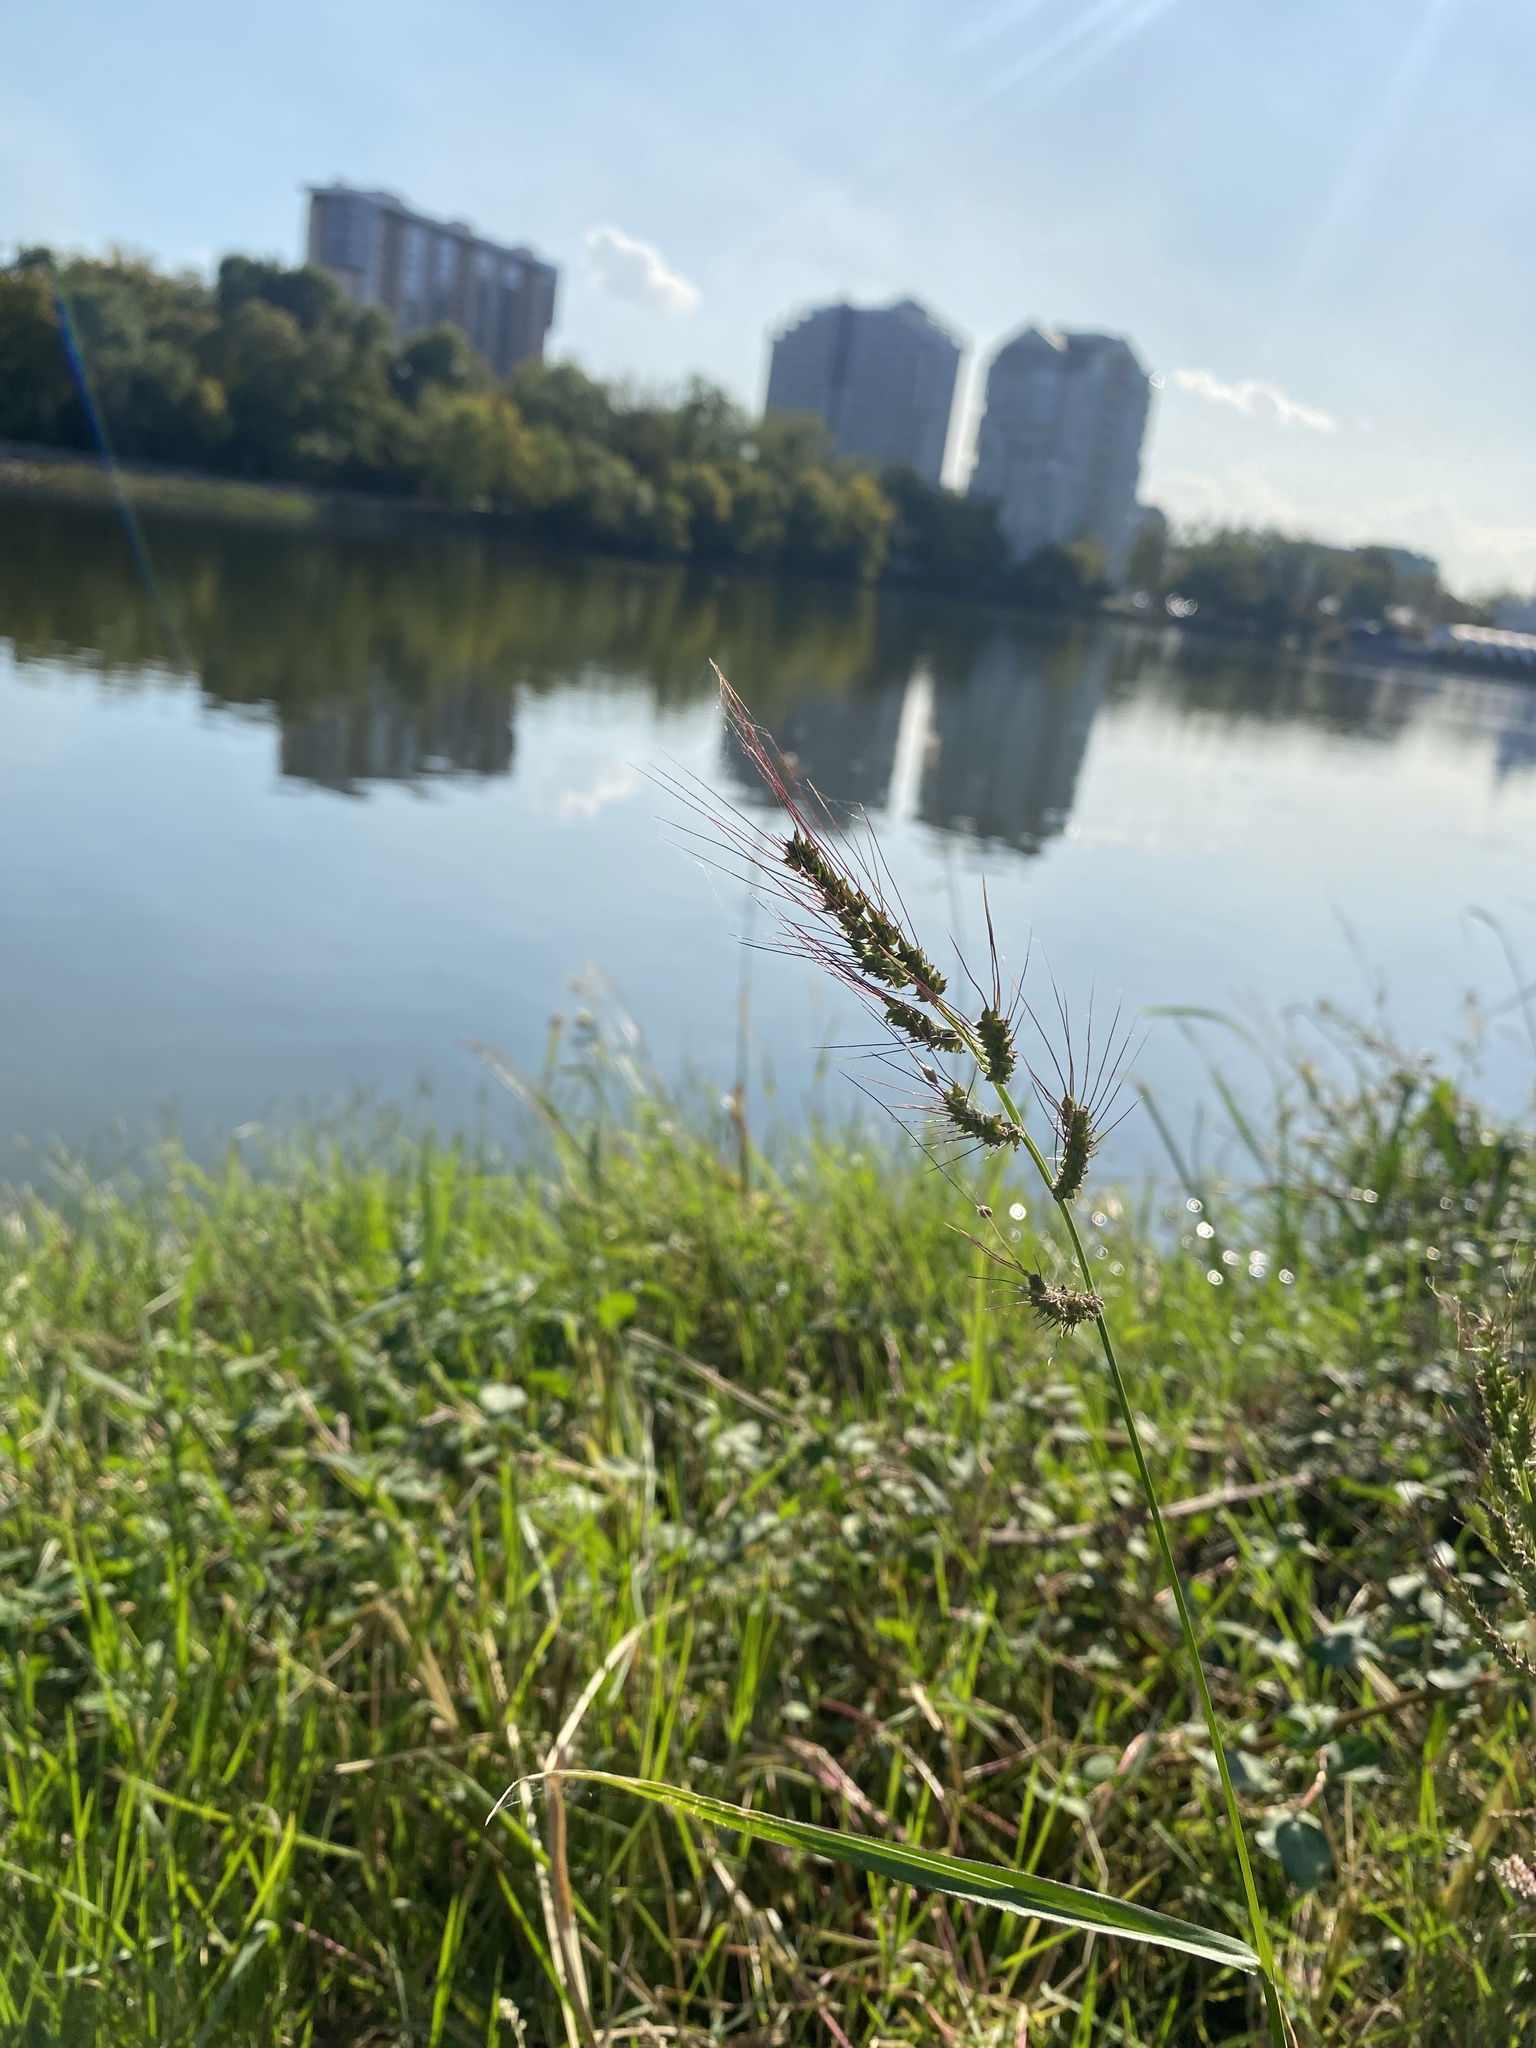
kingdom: Plantae
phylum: Tracheophyta
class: Liliopsida
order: Poales
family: Poaceae
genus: Echinochloa
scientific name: Echinochloa crus-galli
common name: Cockspur
